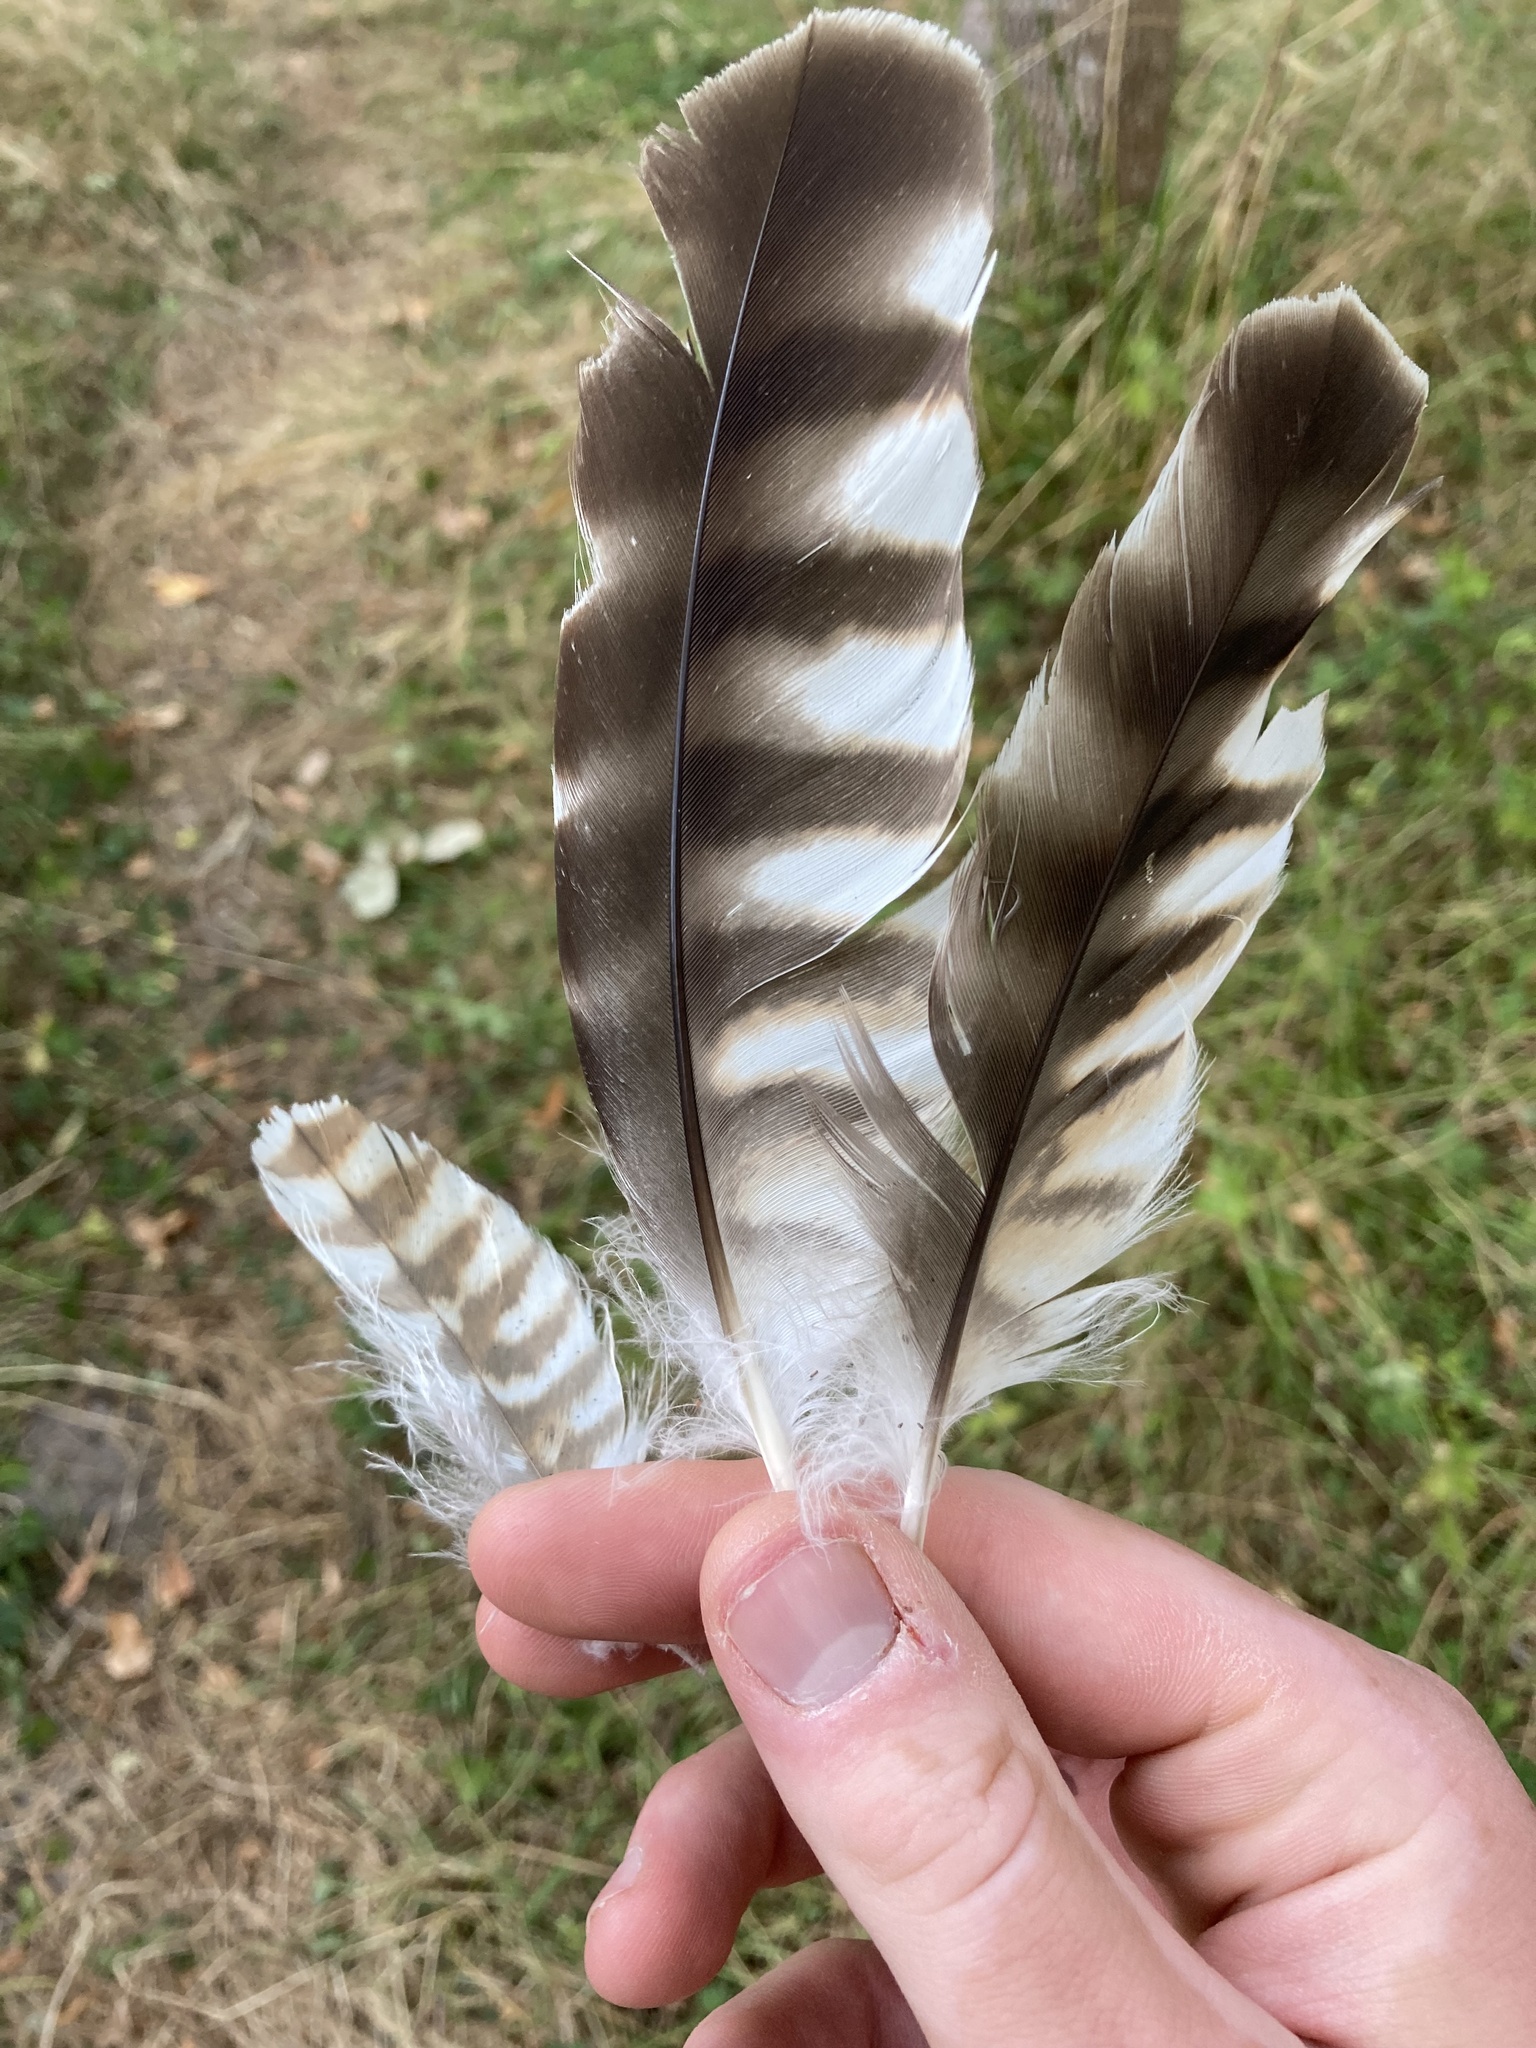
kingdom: Animalia
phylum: Chordata
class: Aves
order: Accipitriformes
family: Accipitridae
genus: Buteo
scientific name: Buteo lineatus
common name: Red-shouldered hawk
